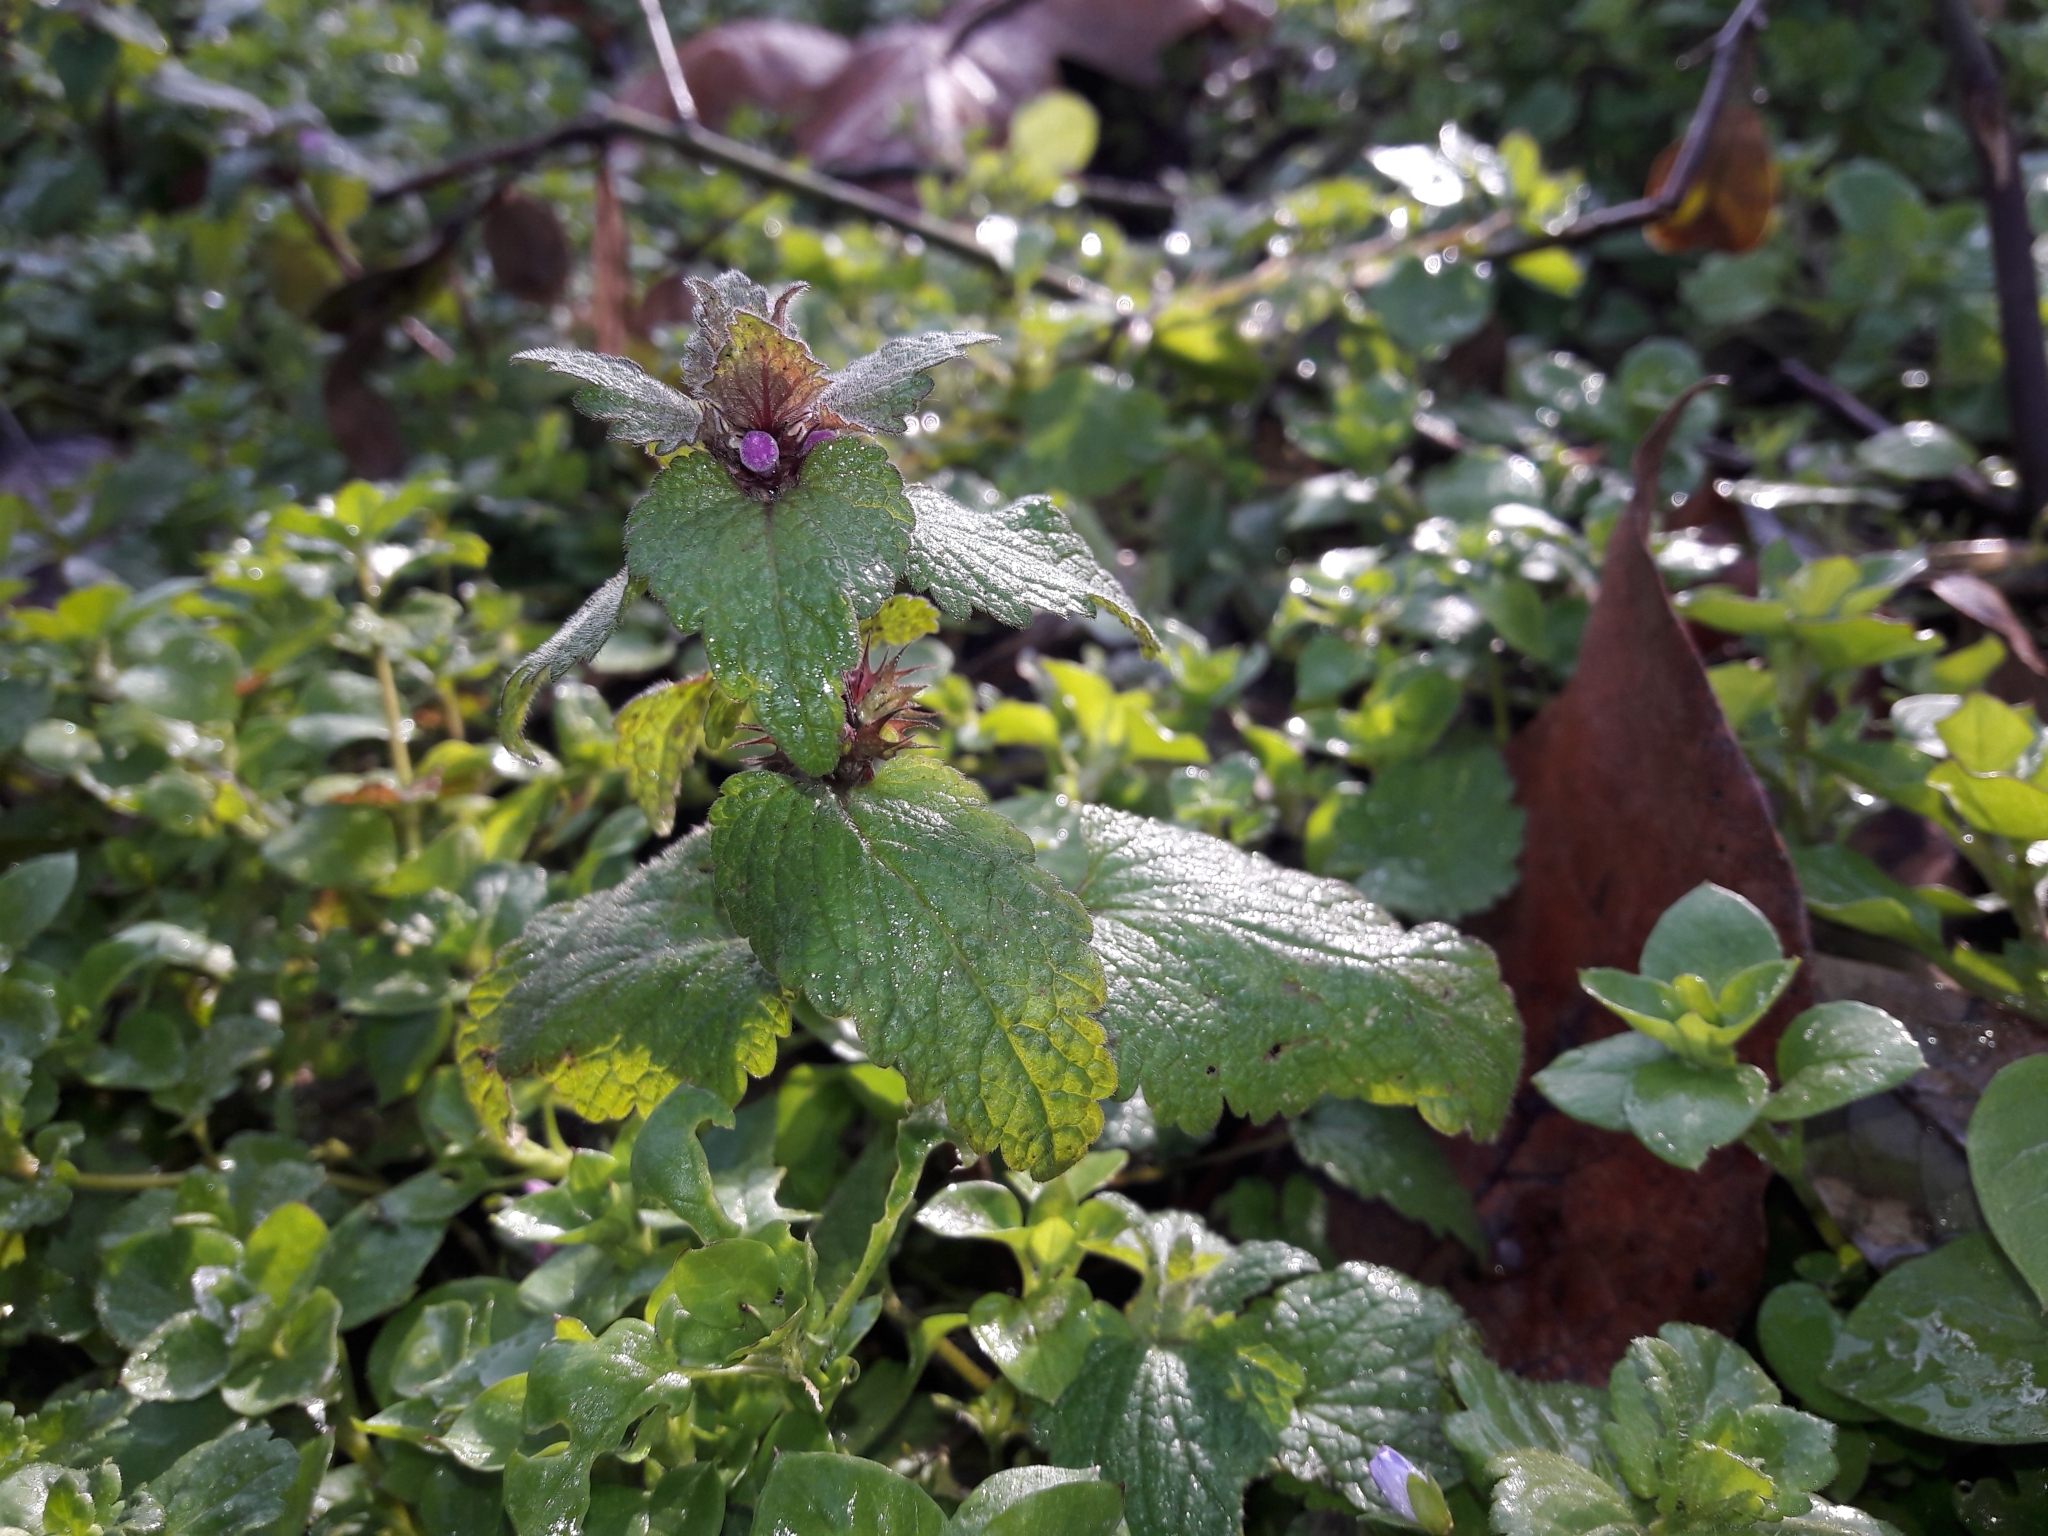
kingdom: Plantae
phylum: Tracheophyta
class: Magnoliopsida
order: Lamiales
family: Lamiaceae
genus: Lamium
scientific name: Lamium purpureum
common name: Red dead-nettle
